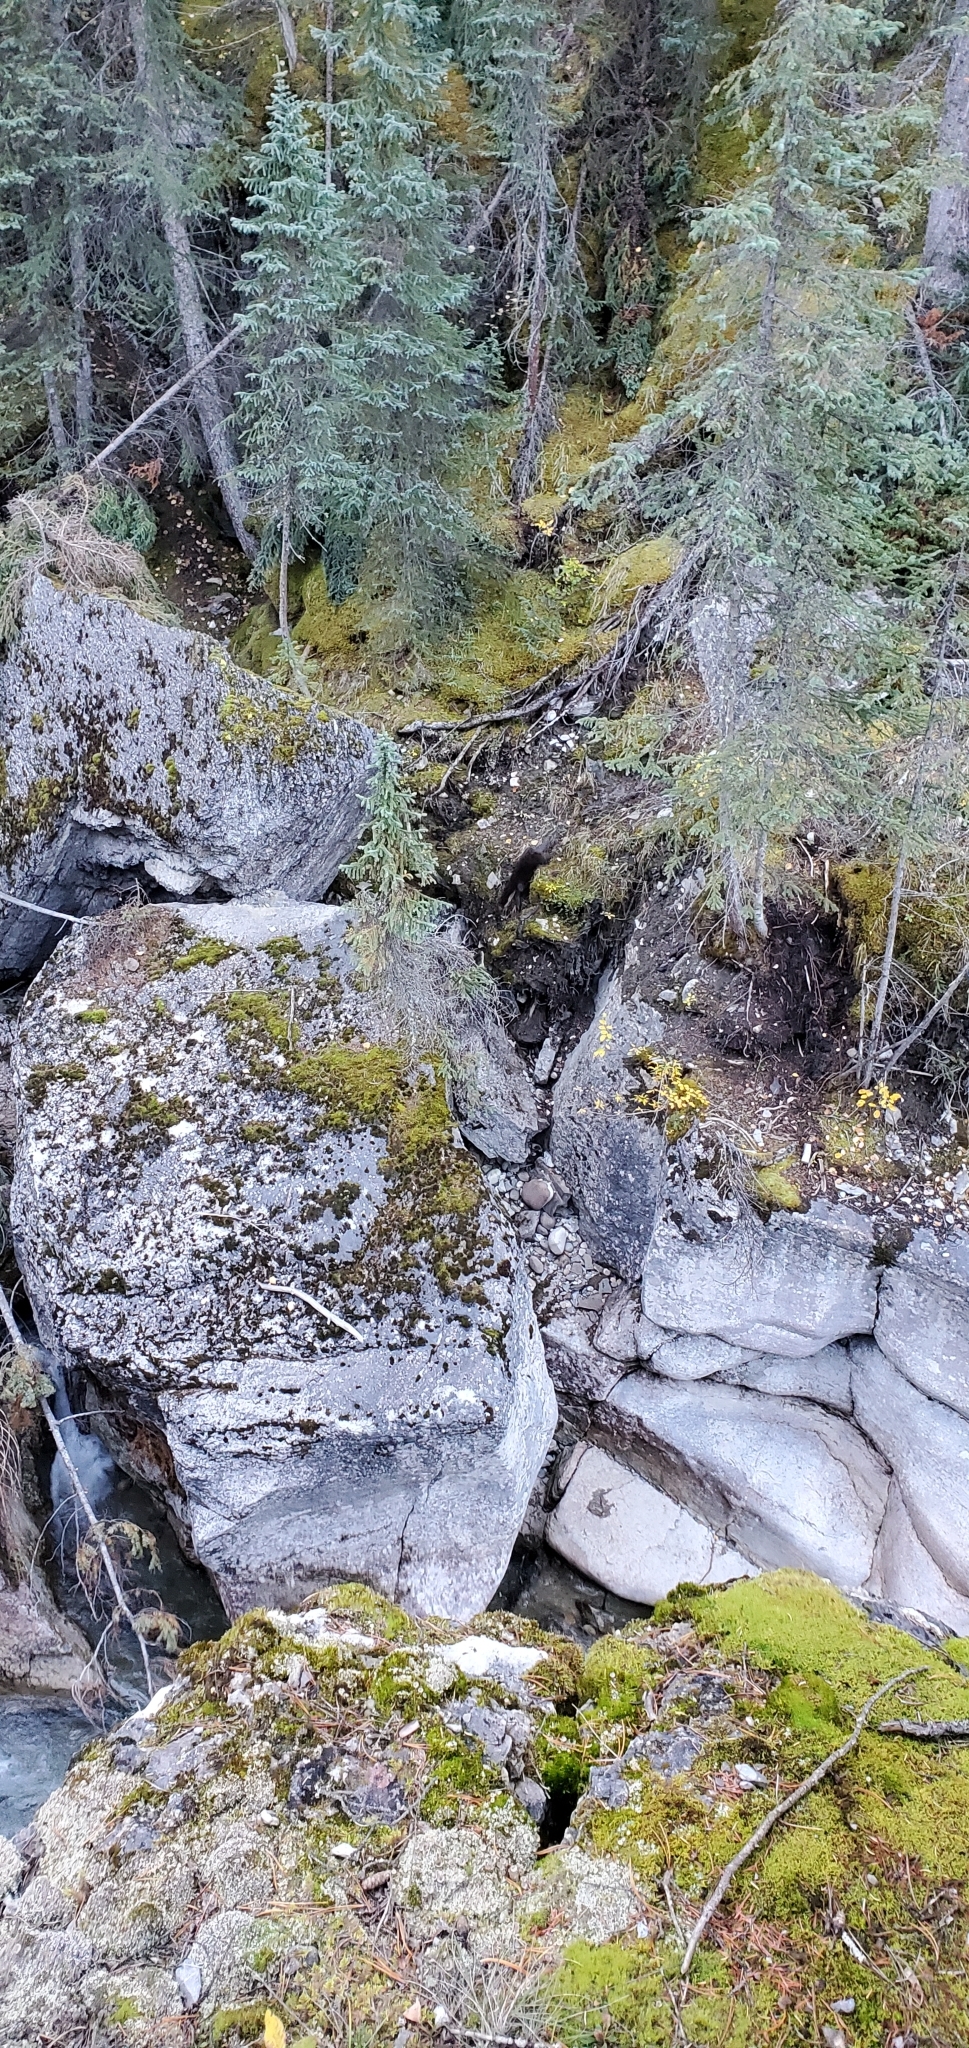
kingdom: Animalia
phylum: Chordata
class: Mammalia
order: Carnivora
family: Mustelidae
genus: Lontra
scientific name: Lontra canadensis
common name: North american river otter
